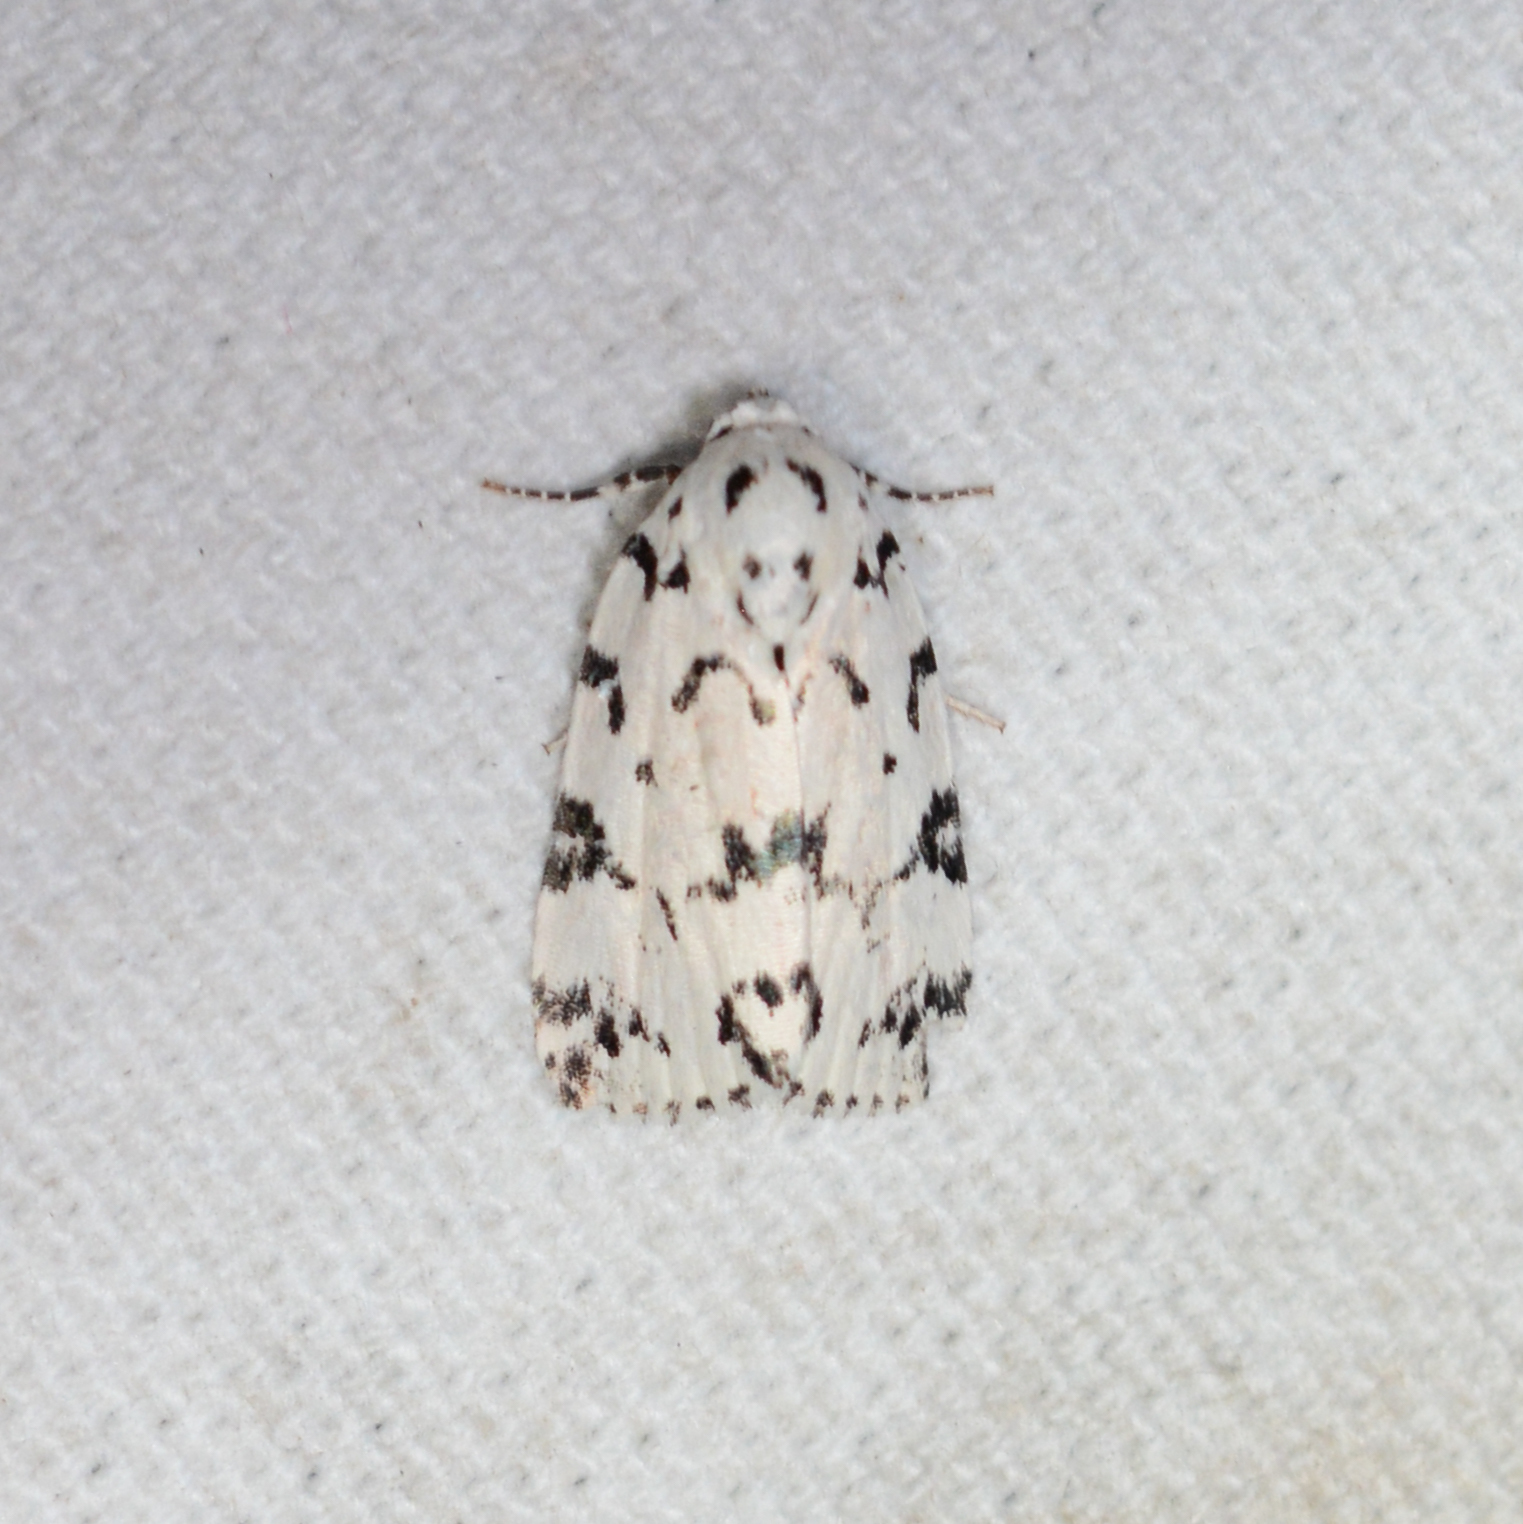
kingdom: Animalia
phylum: Arthropoda
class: Insecta
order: Lepidoptera
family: Noctuidae
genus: Polygrammate
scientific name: Polygrammate hebraeicum
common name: Hebrew moth
